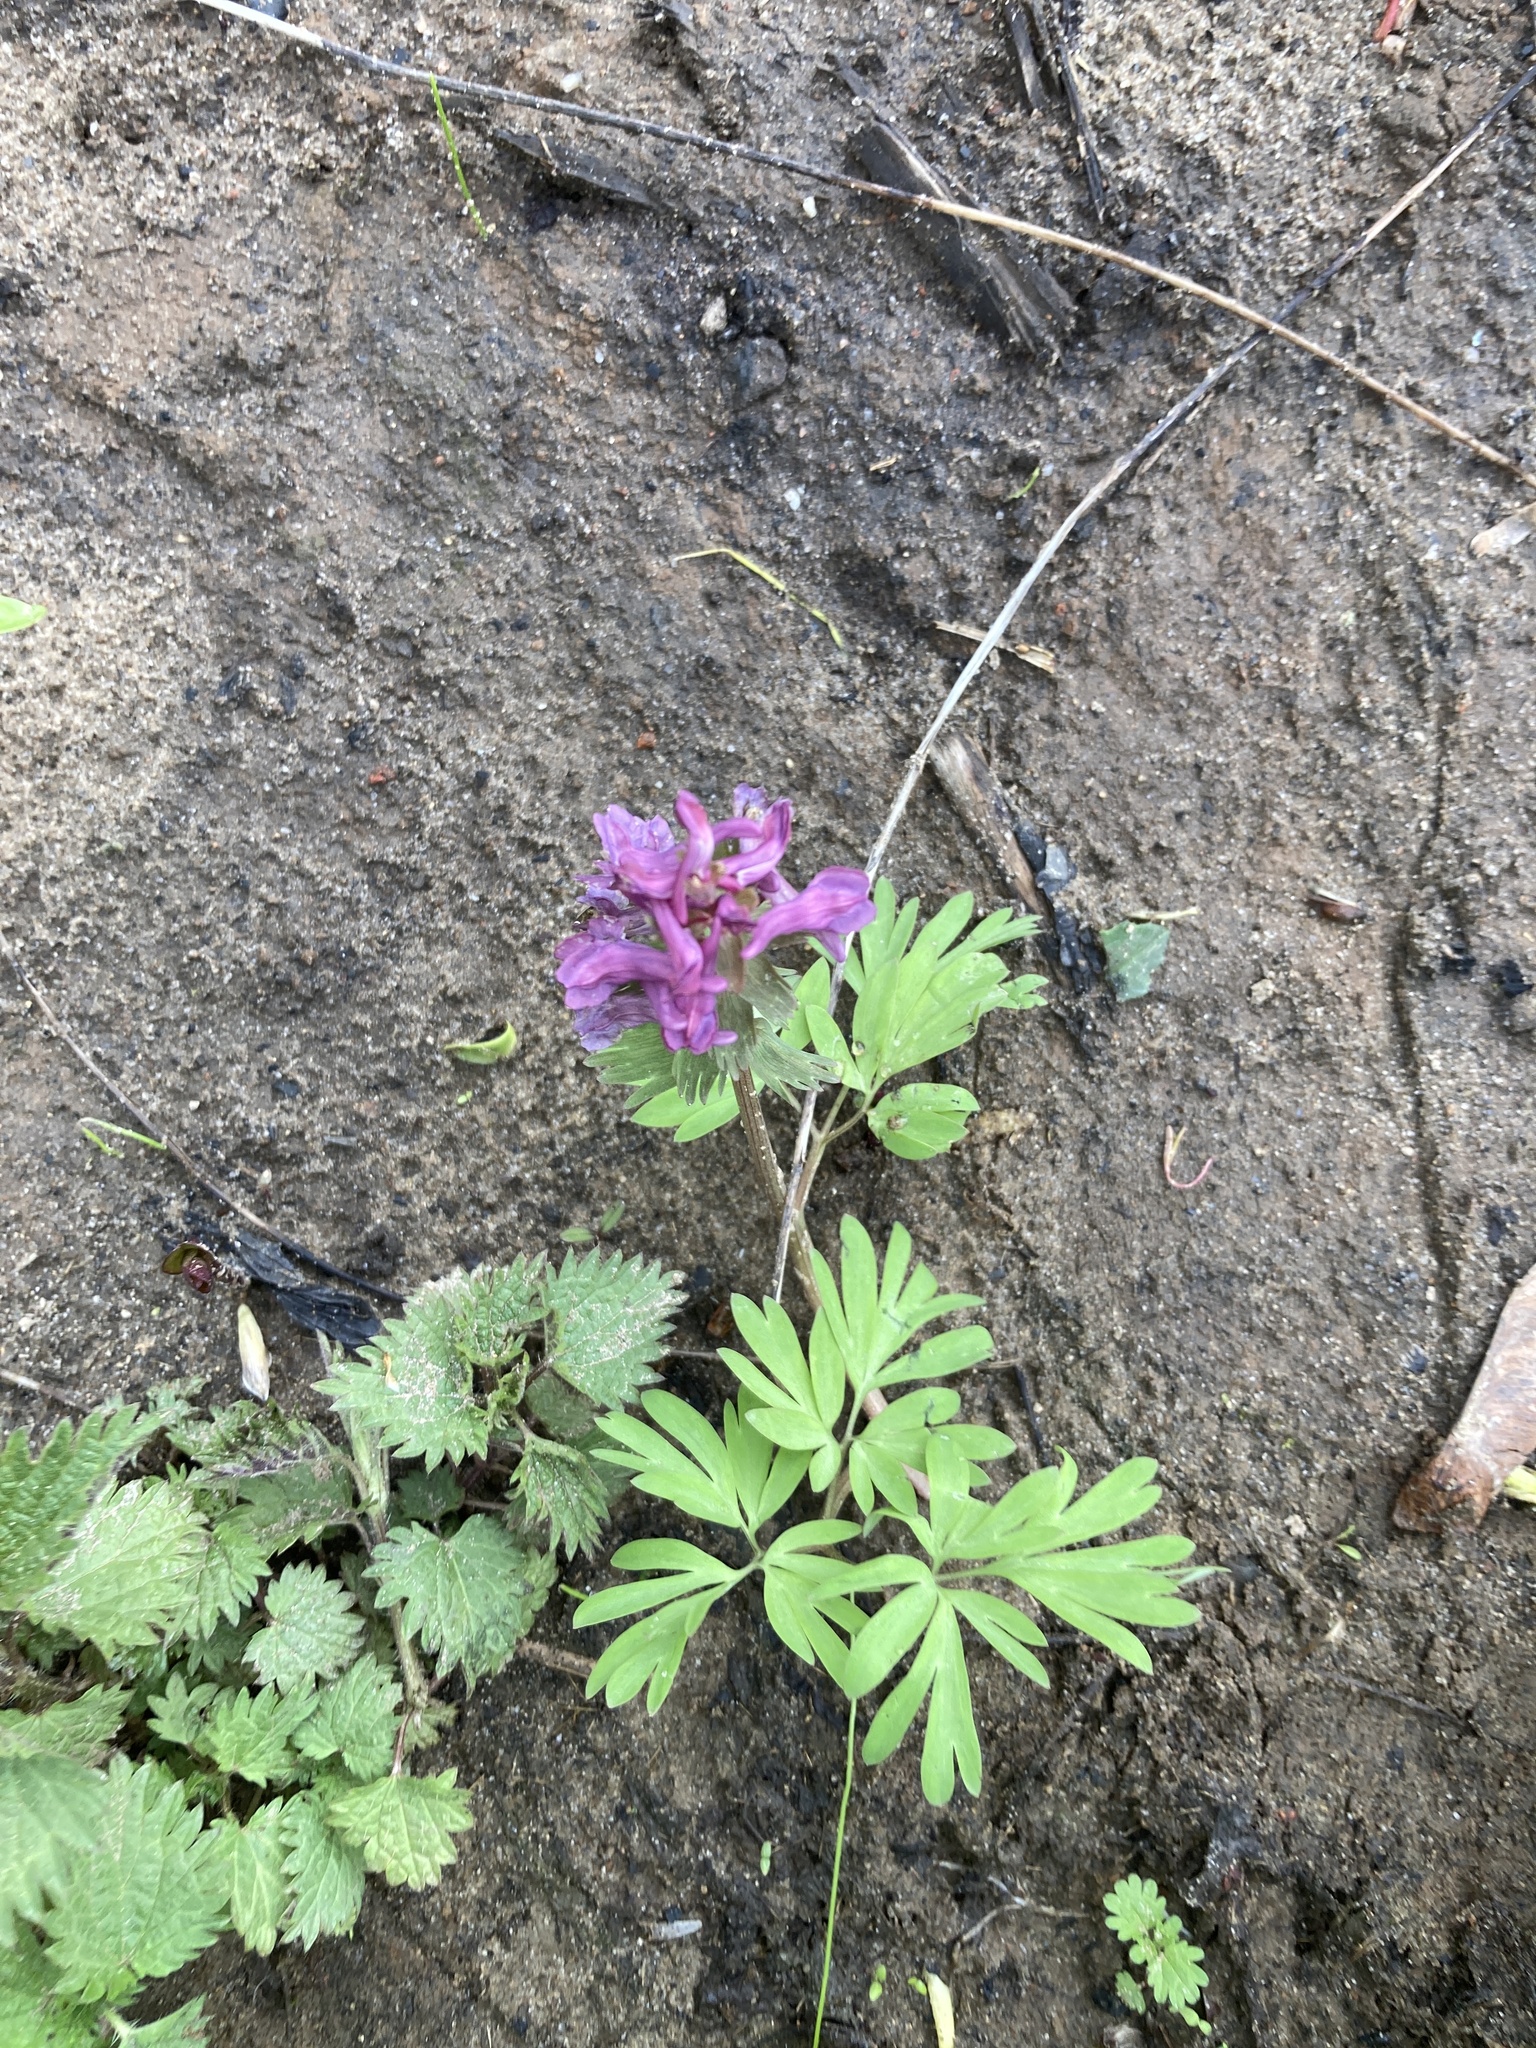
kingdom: Plantae
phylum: Tracheophyta
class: Magnoliopsida
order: Ranunculales
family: Papaveraceae
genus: Corydalis
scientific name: Corydalis solida
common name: Bird-in-a-bush
